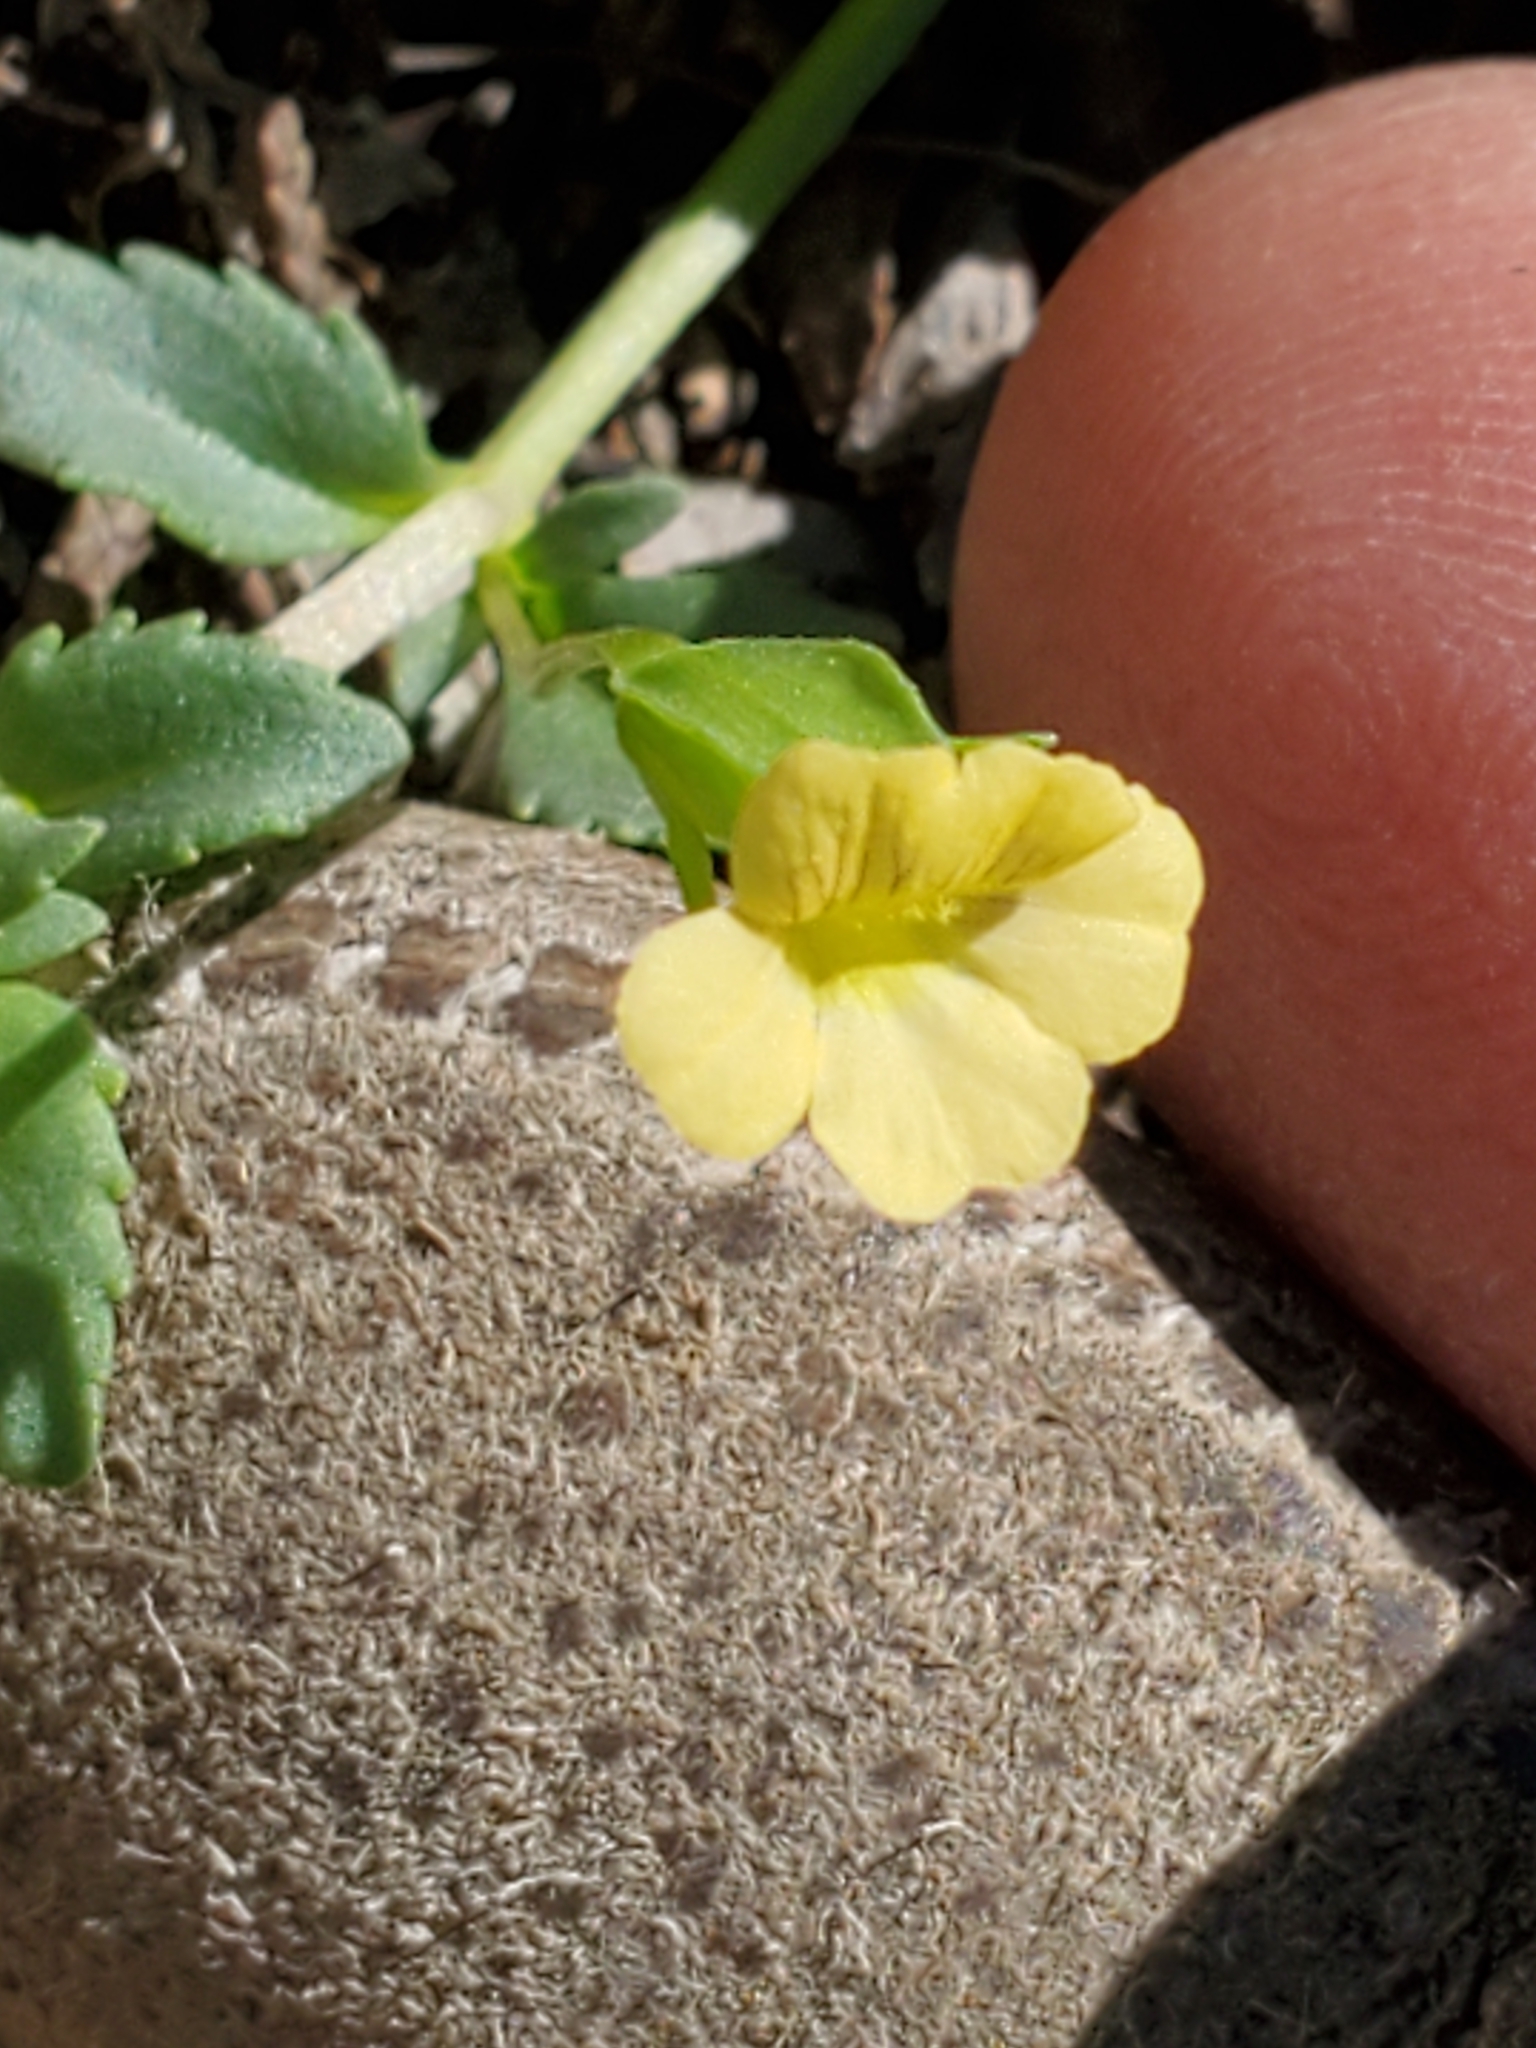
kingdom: Plantae
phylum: Tracheophyta
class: Magnoliopsida
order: Lamiales
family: Plantaginaceae
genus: Mecardonia
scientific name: Mecardonia procumbens
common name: Baby jump-up
